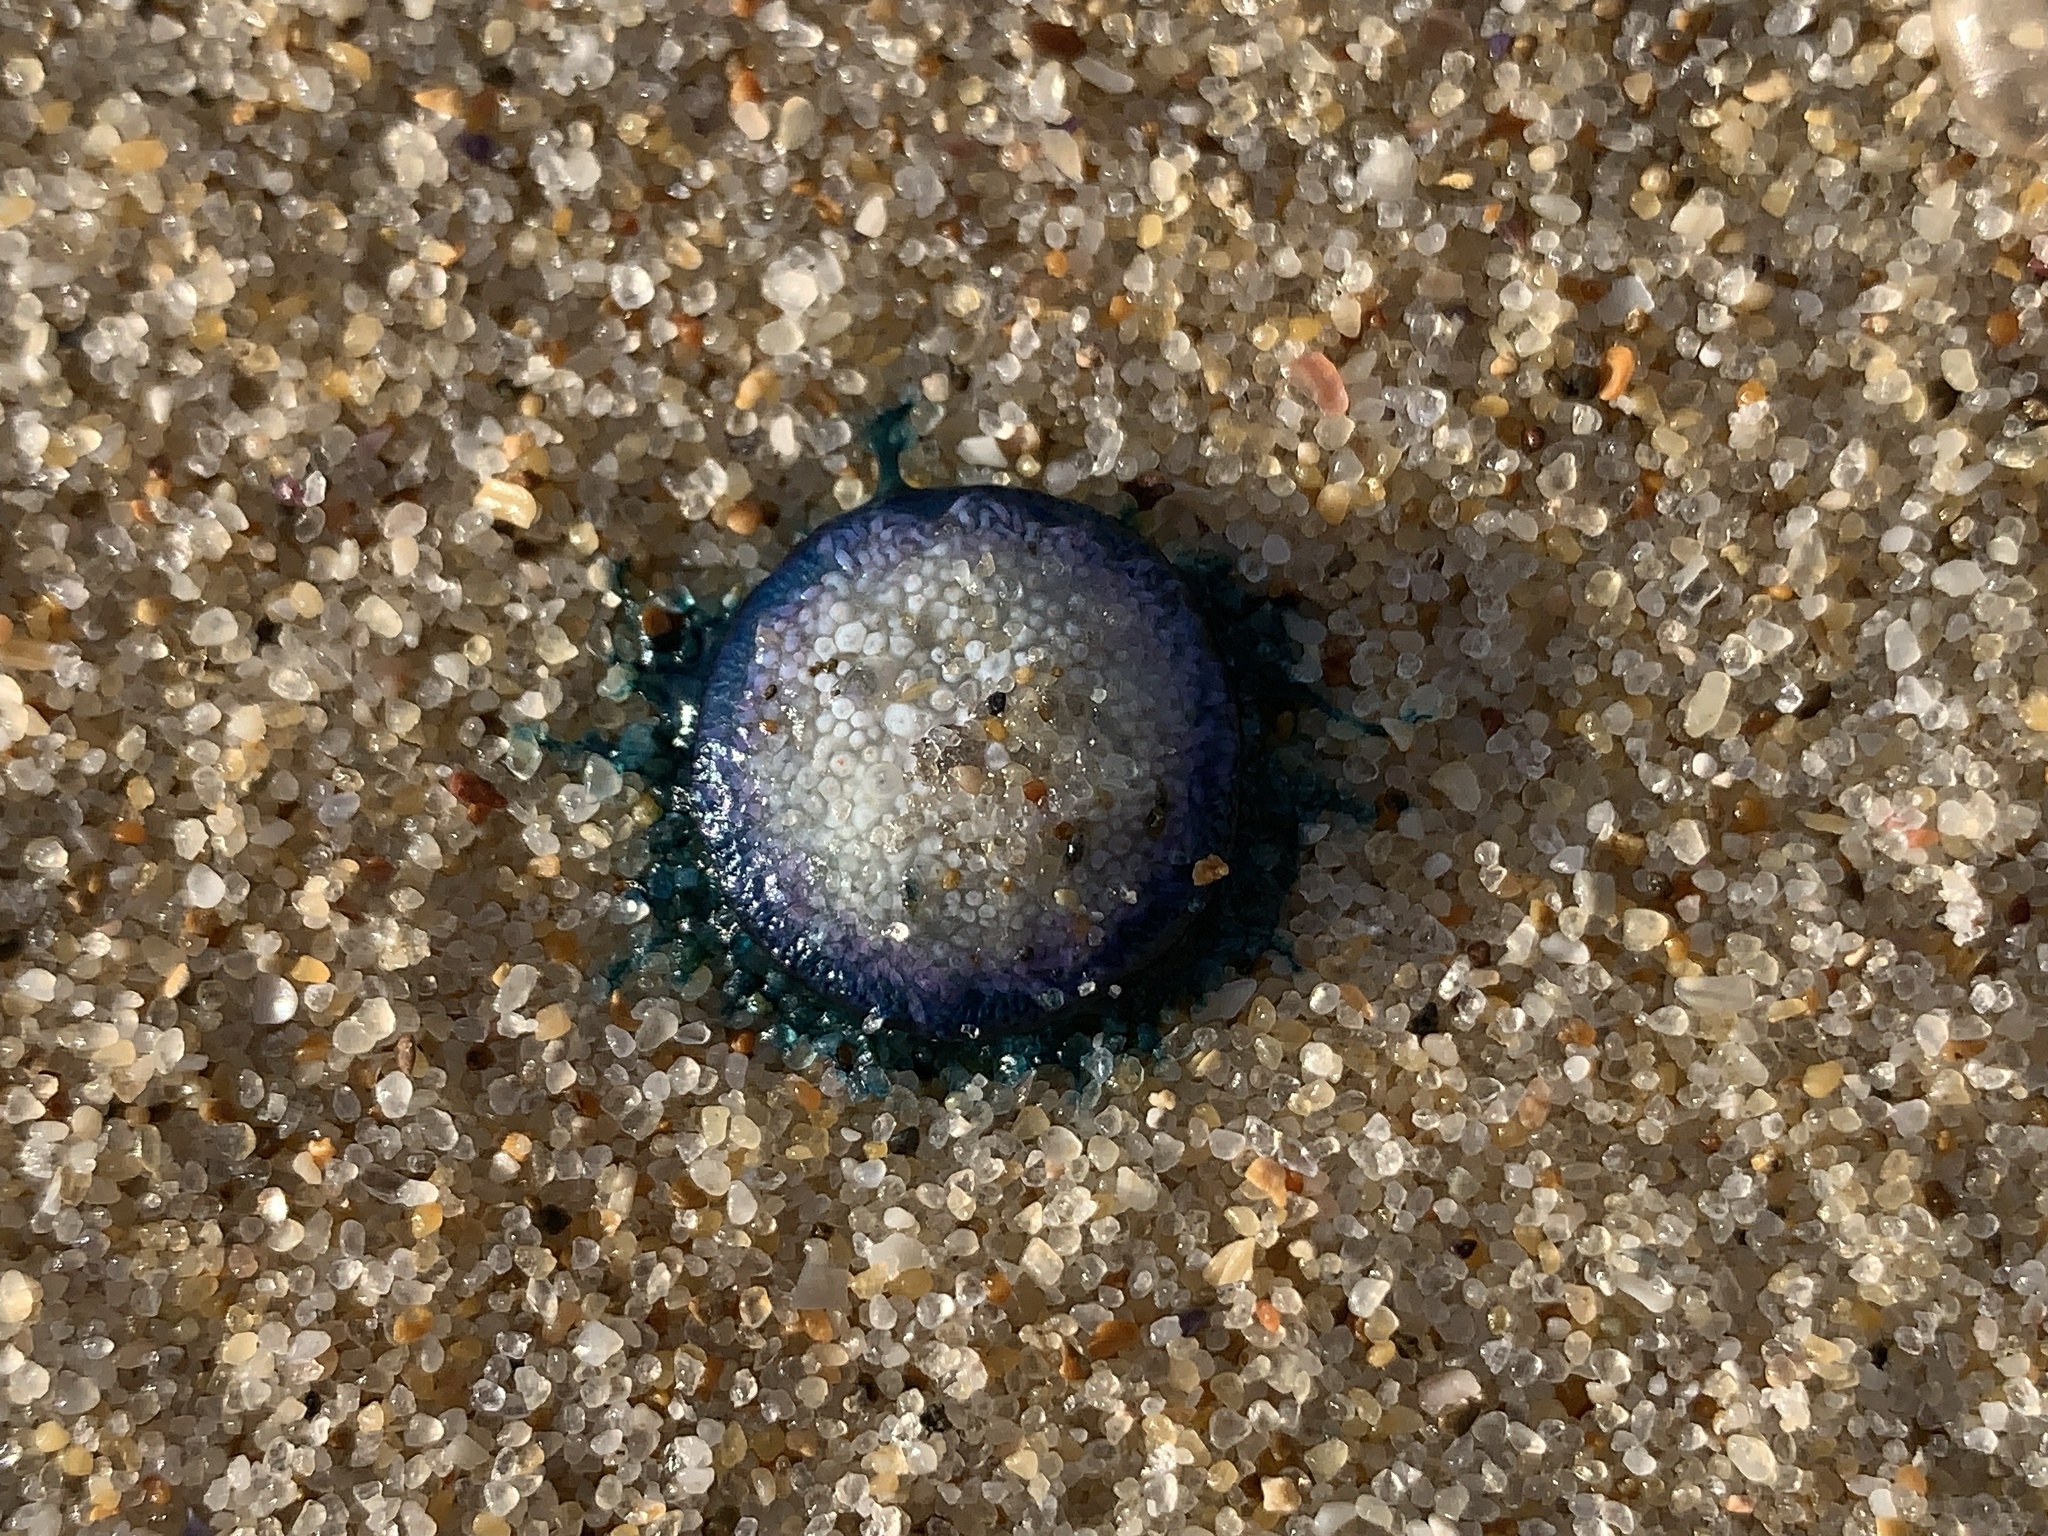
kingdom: Animalia
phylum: Cnidaria
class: Hydrozoa
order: Anthoathecata
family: Porpitidae
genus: Porpita
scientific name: Porpita porpita
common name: Blue button
